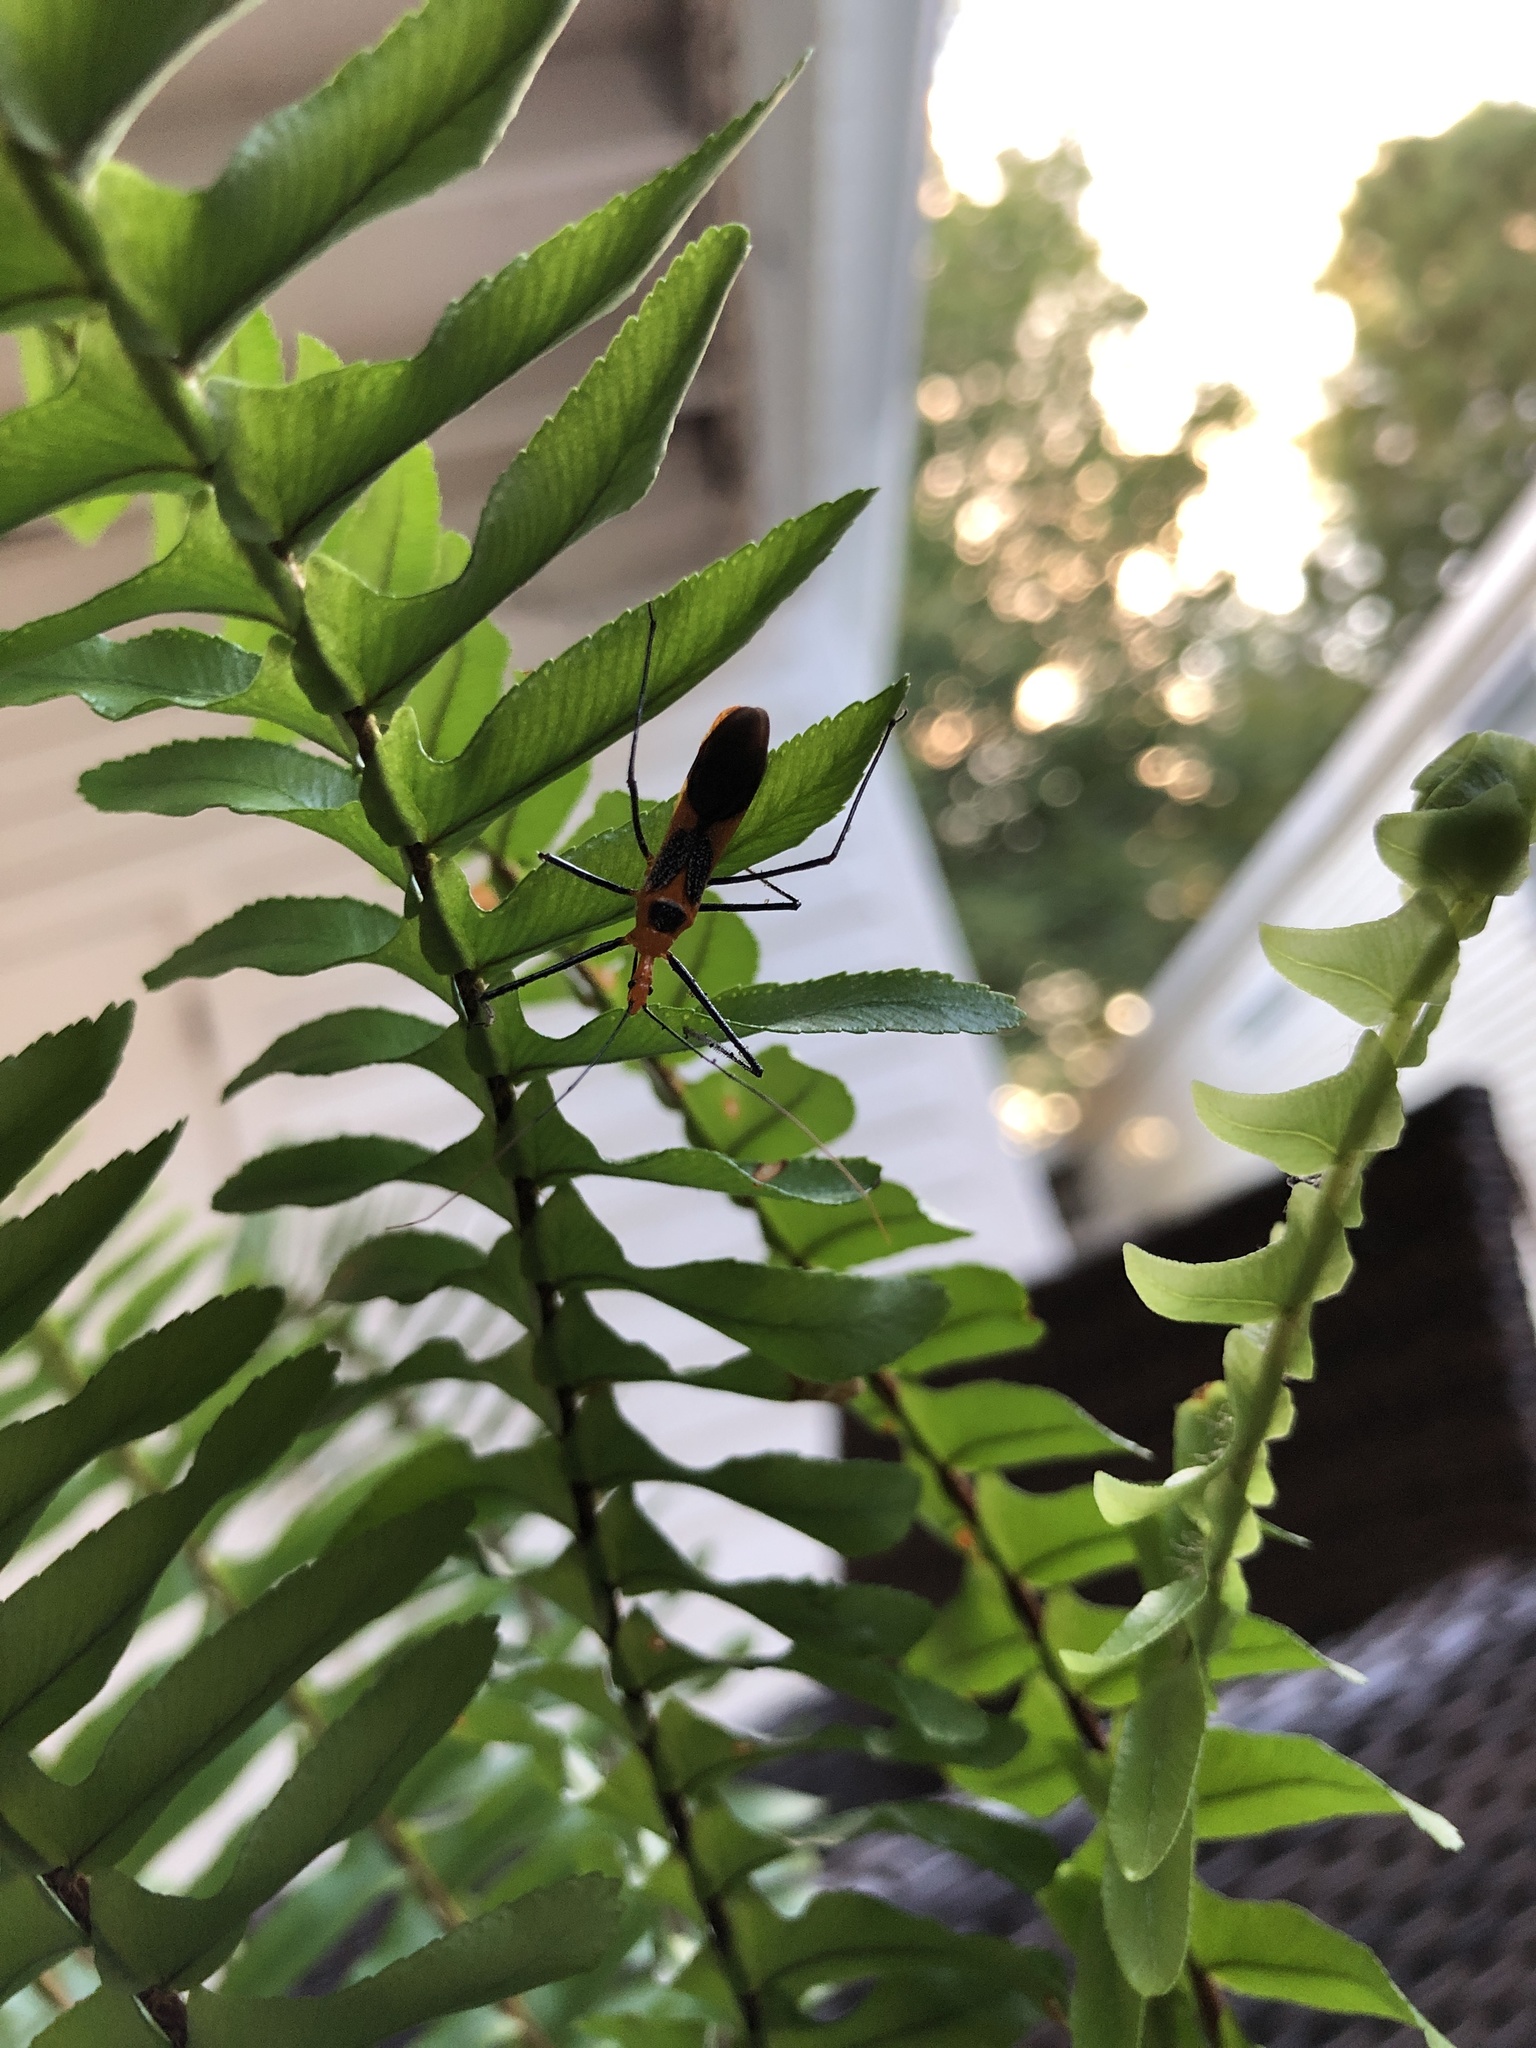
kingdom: Animalia
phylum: Arthropoda
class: Insecta
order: Hemiptera
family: Reduviidae
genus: Zelus
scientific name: Zelus longipes
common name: Milkweed assassin bug
